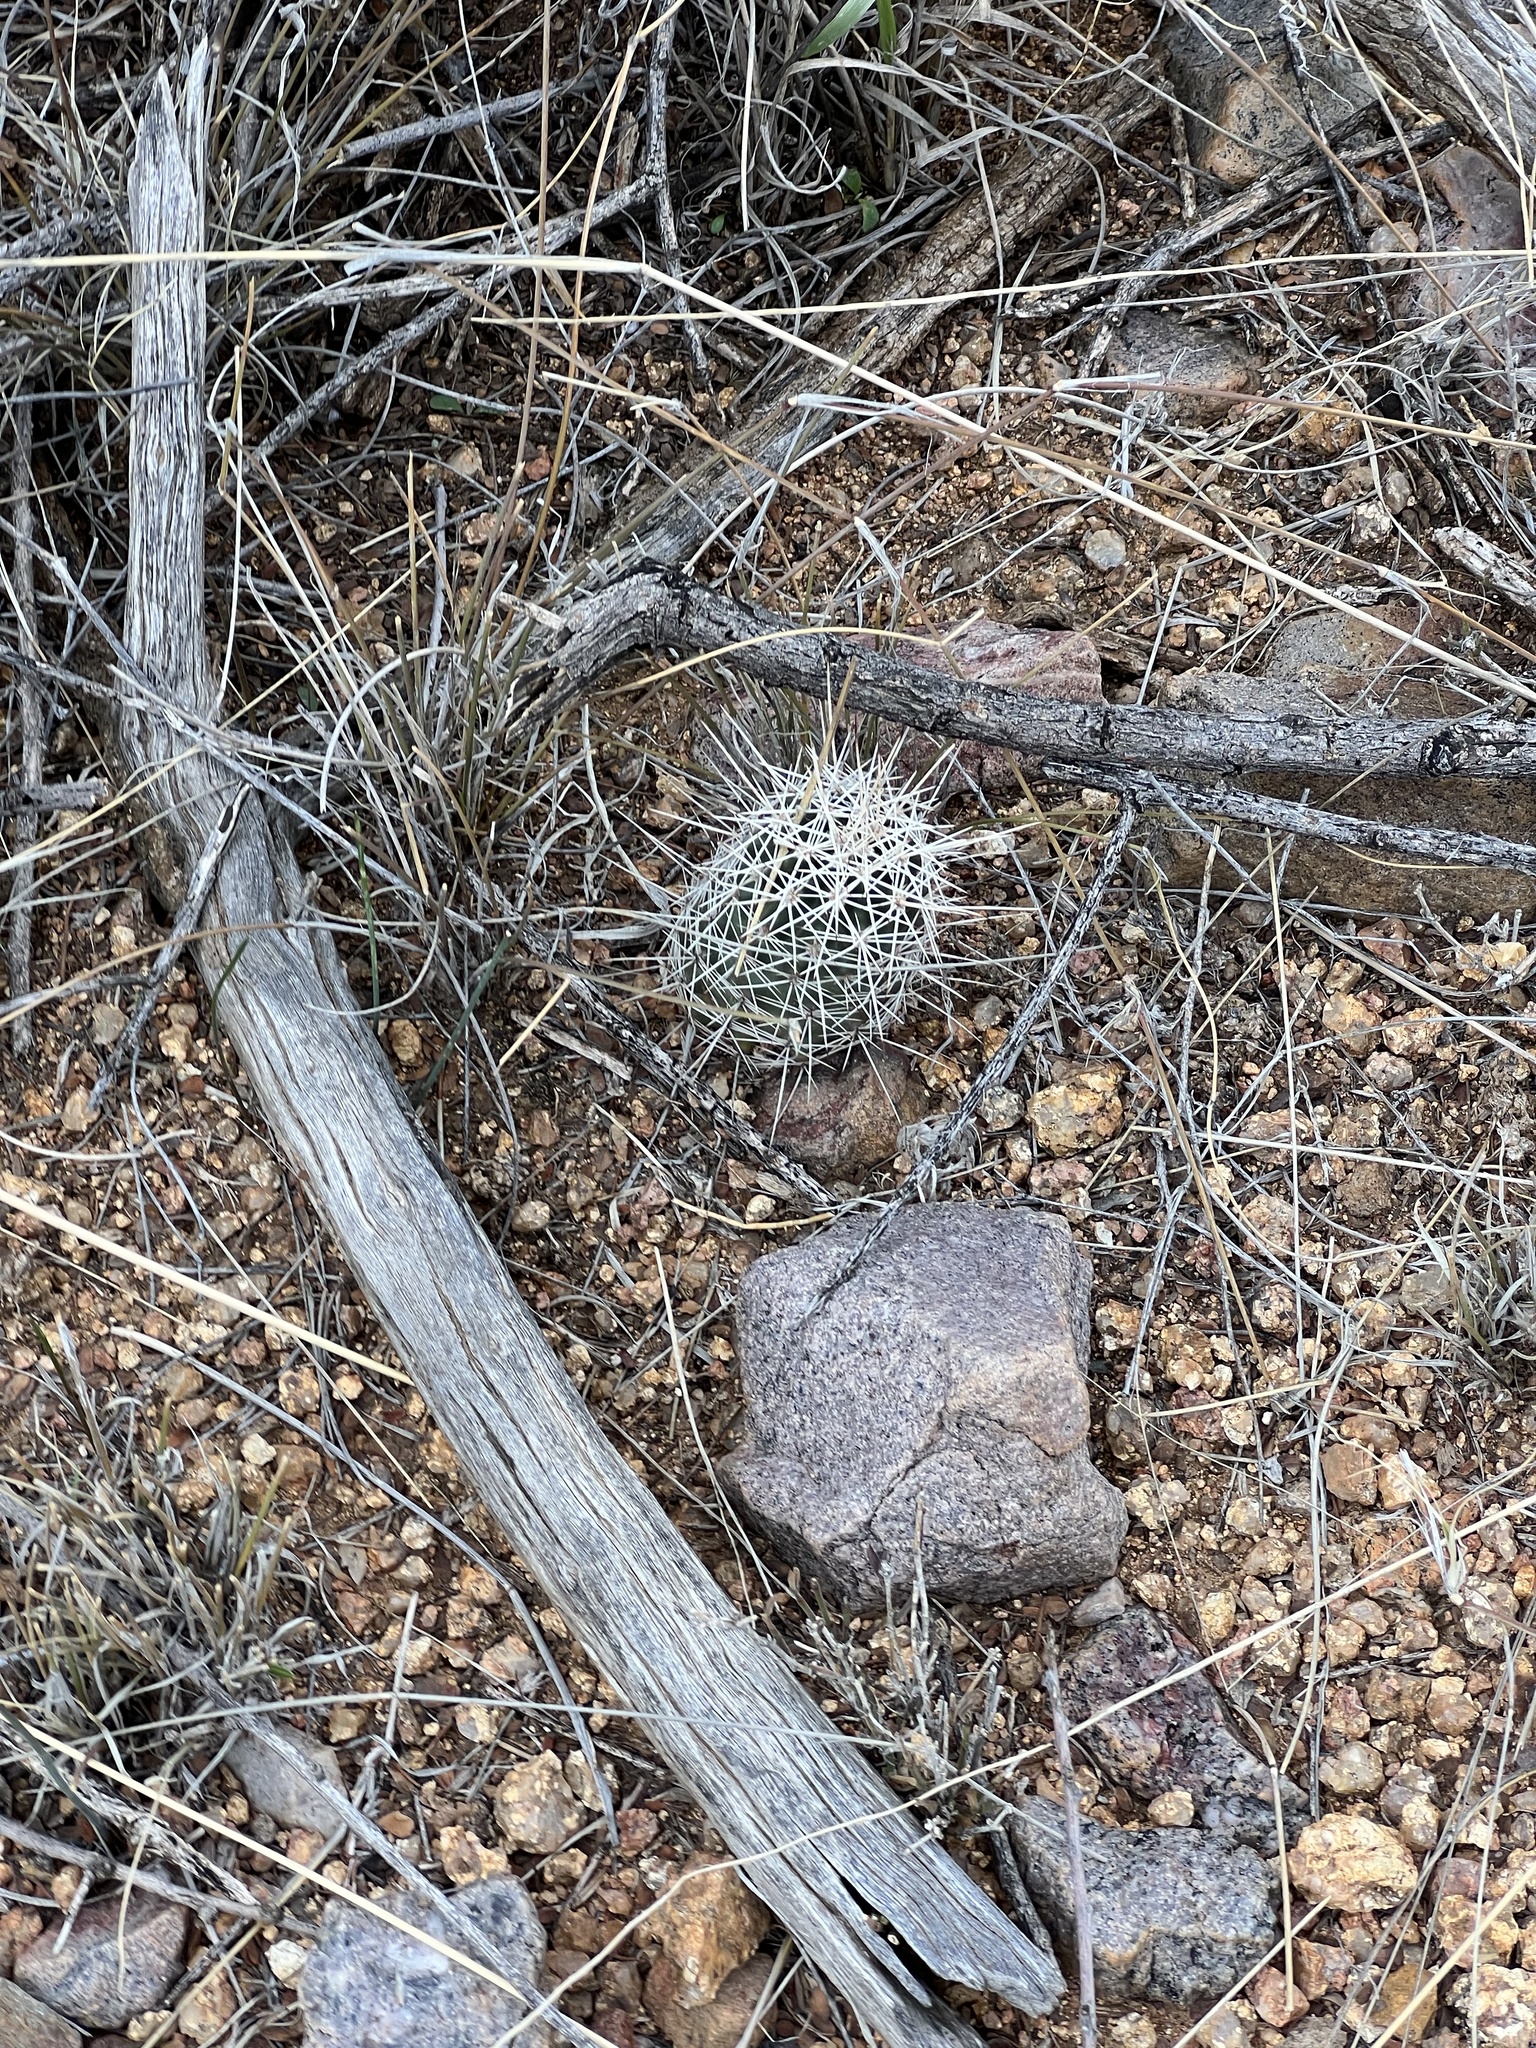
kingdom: Plantae
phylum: Tracheophyta
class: Magnoliopsida
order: Caryophyllales
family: Cactaceae
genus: Echinocereus
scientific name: Echinocereus fasciculatus
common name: Bundle hedgehog
